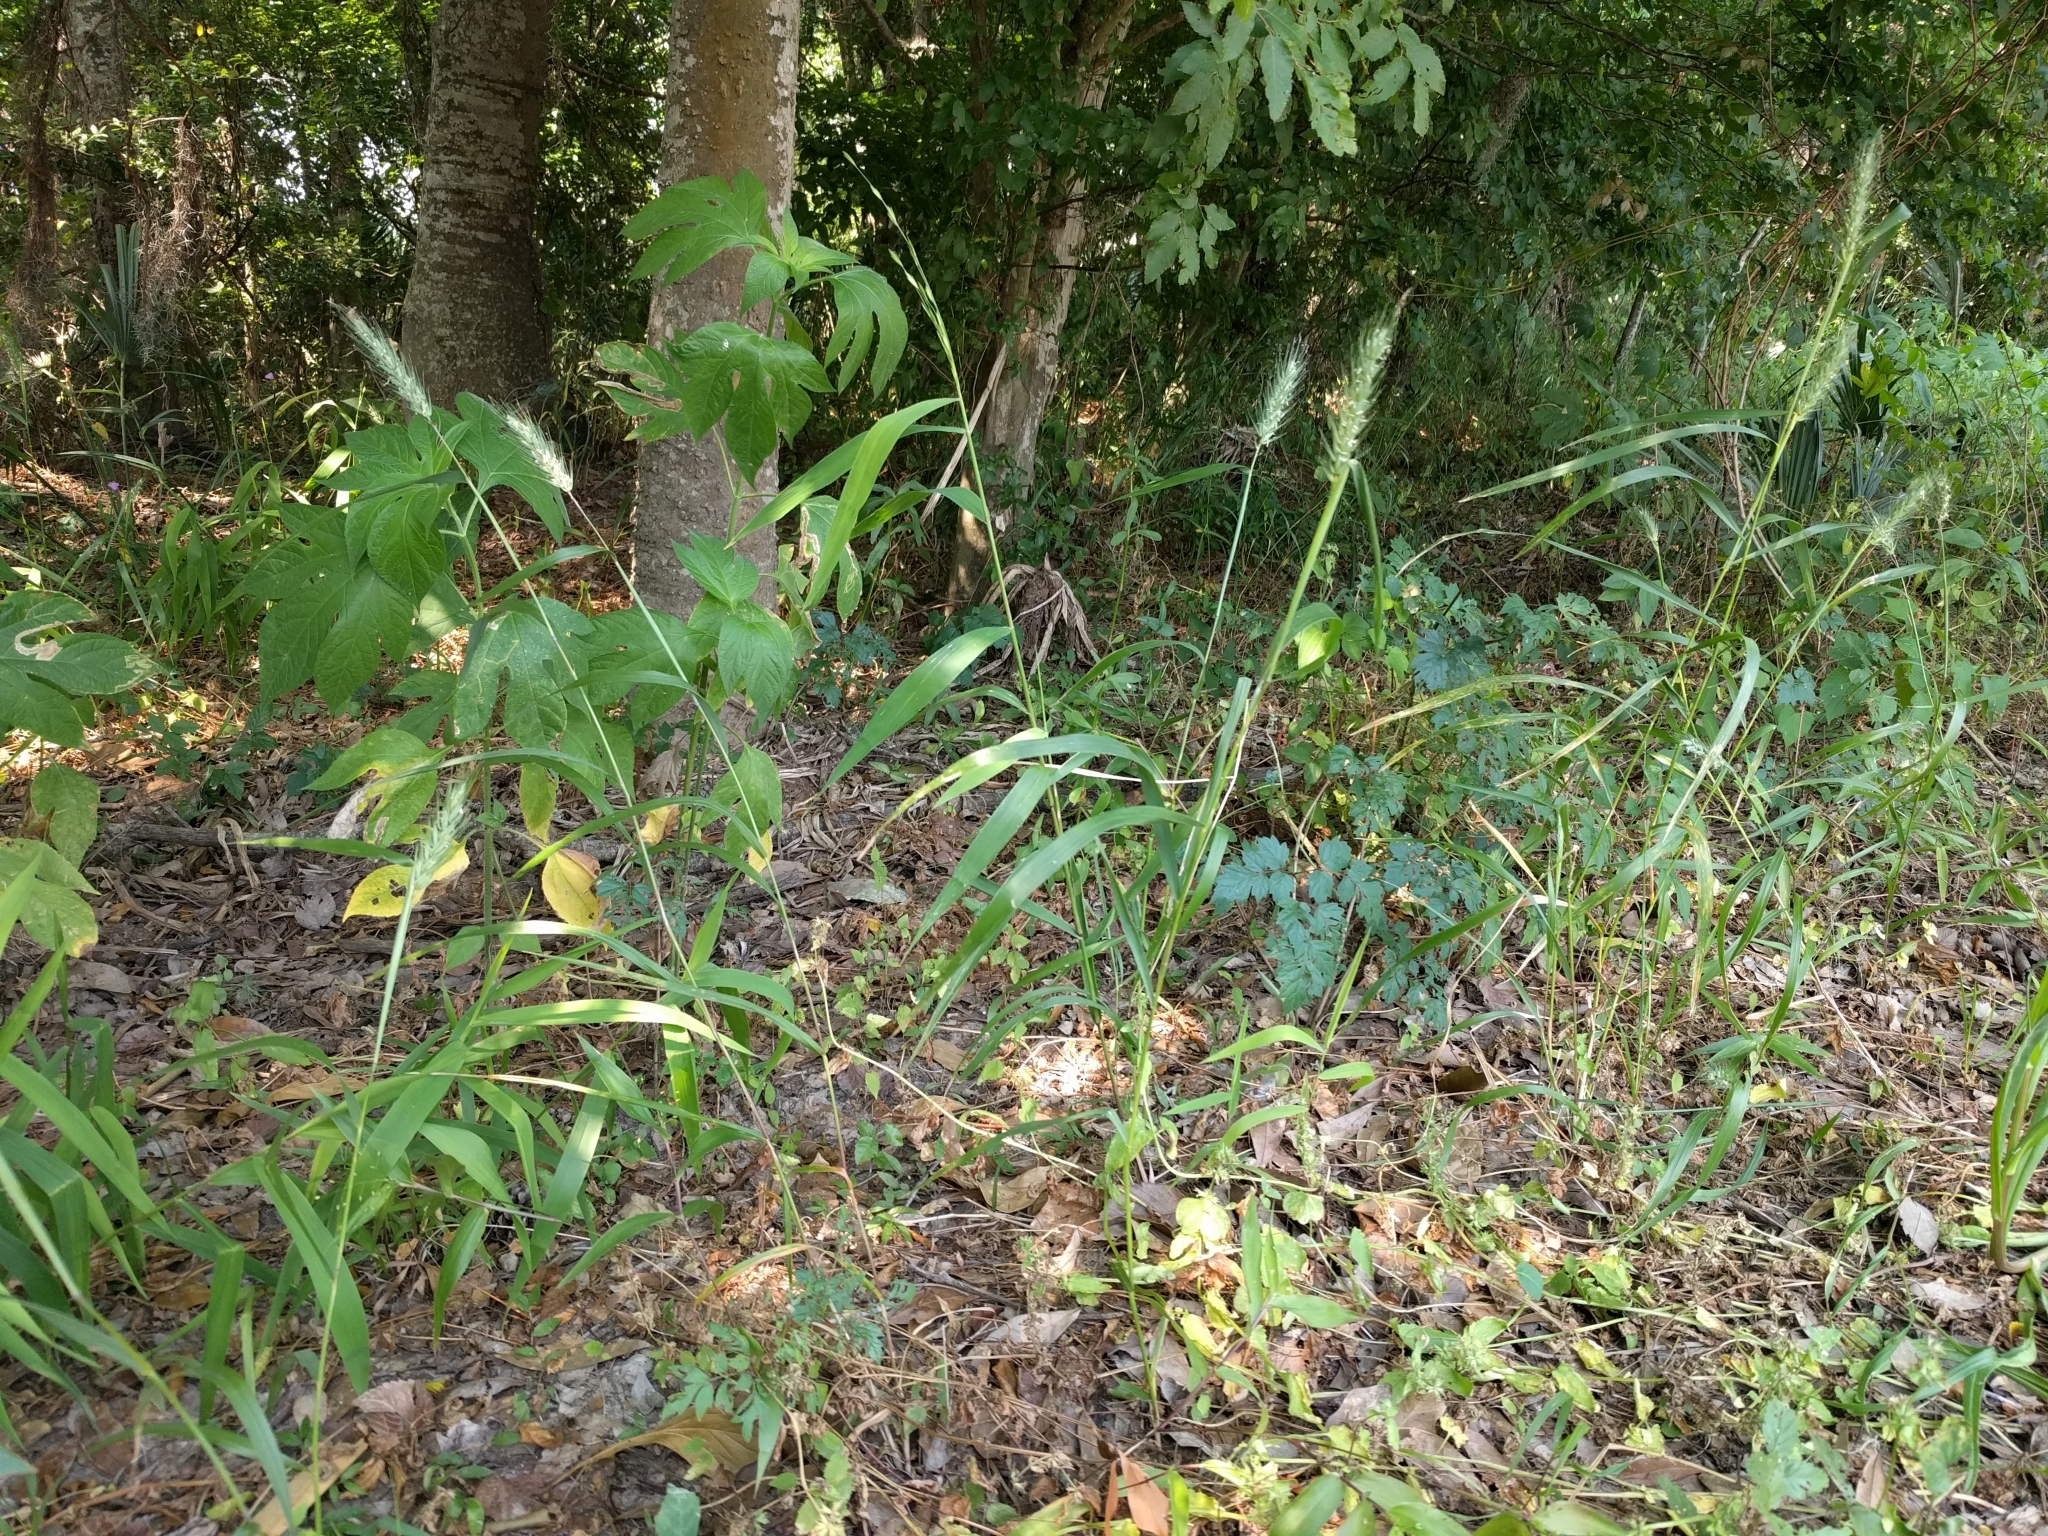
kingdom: Plantae
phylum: Tracheophyta
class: Liliopsida
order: Poales
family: Poaceae
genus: Elymus
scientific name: Elymus virginicus
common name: Common eastern wildrye
